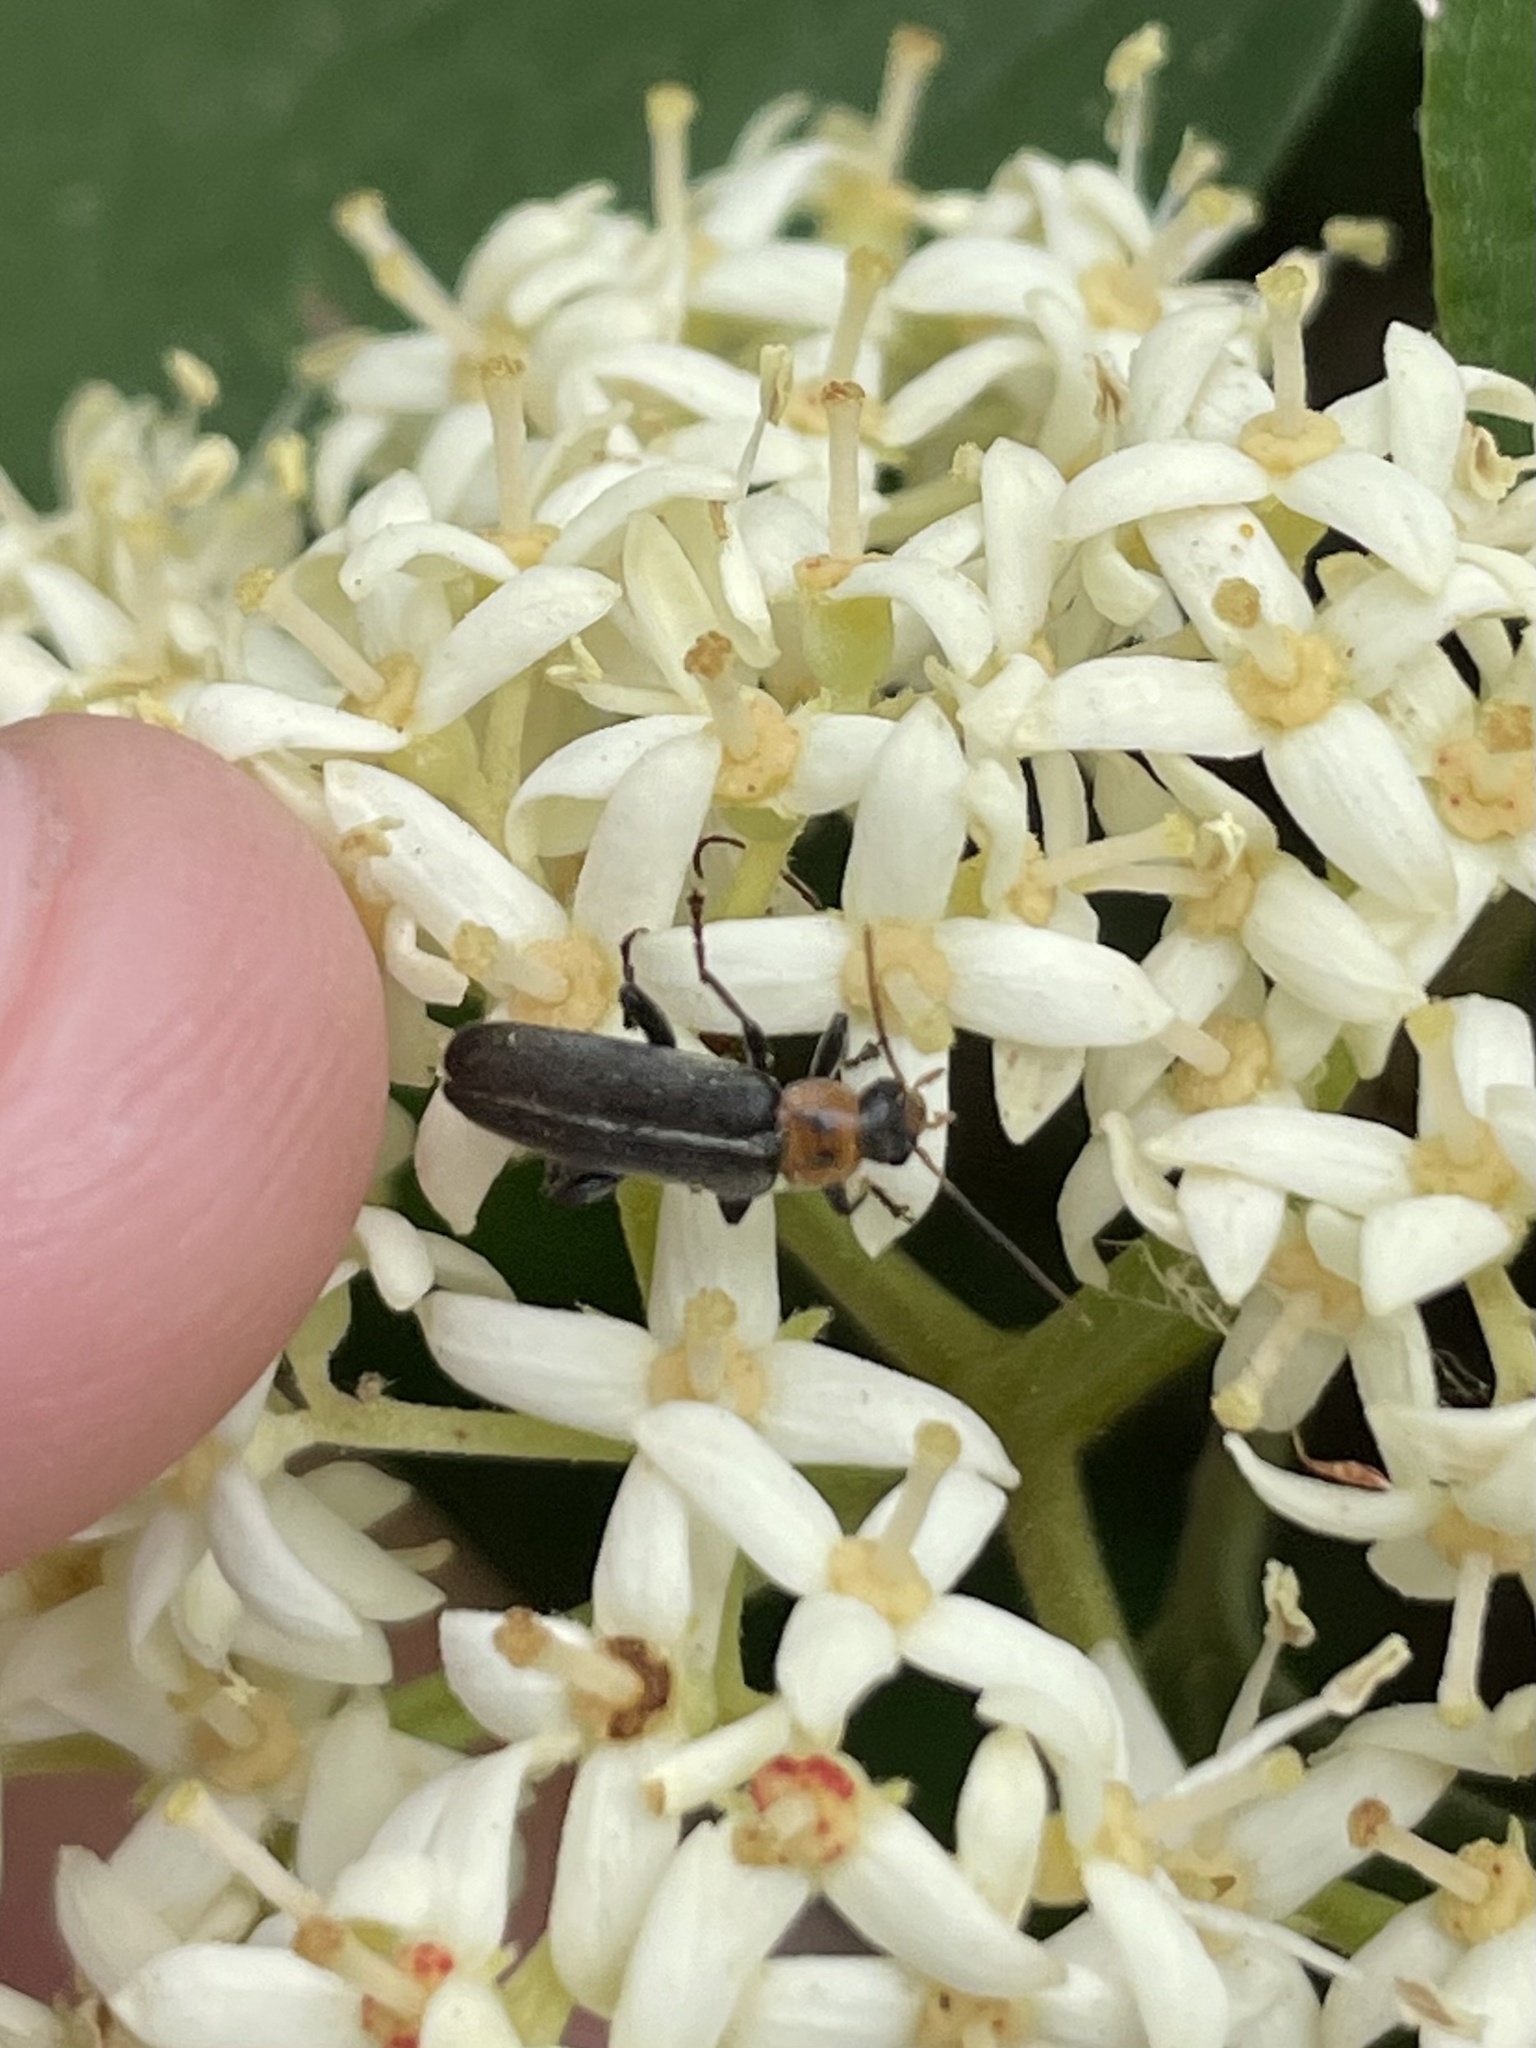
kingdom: Animalia
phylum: Arthropoda
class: Insecta
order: Coleoptera
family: Melandryidae
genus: Osphya
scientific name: Osphya varians
